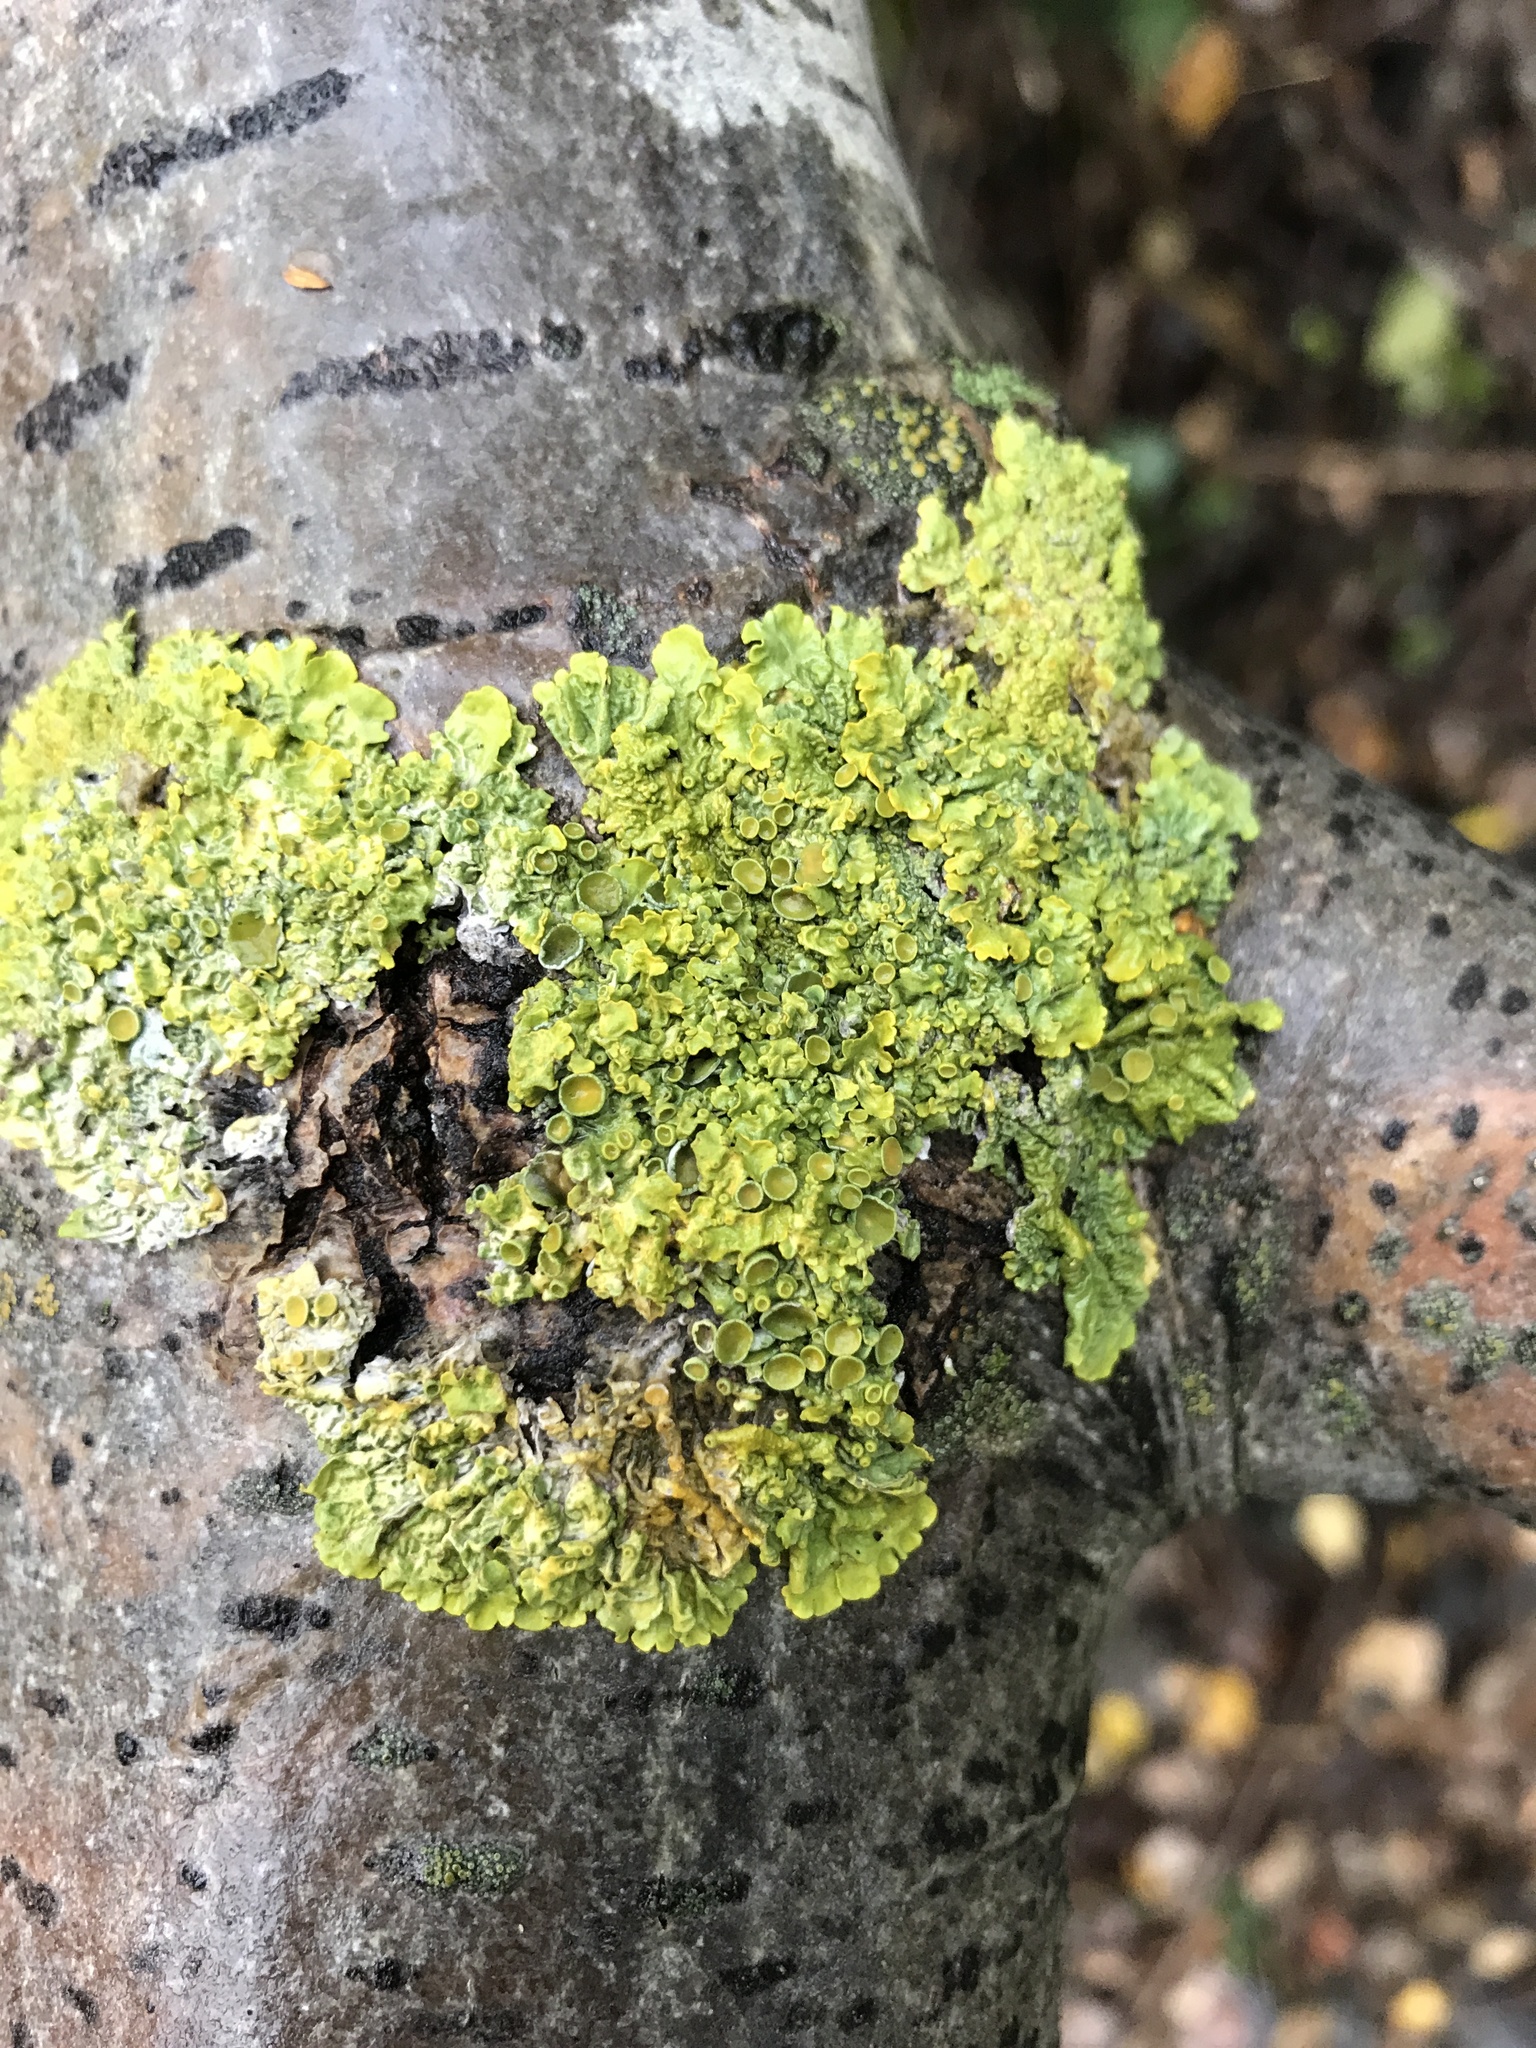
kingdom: Fungi
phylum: Ascomycota
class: Lecanoromycetes
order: Teloschistales
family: Teloschistaceae
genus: Xanthoria
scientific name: Xanthoria parietina
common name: Common orange lichen
